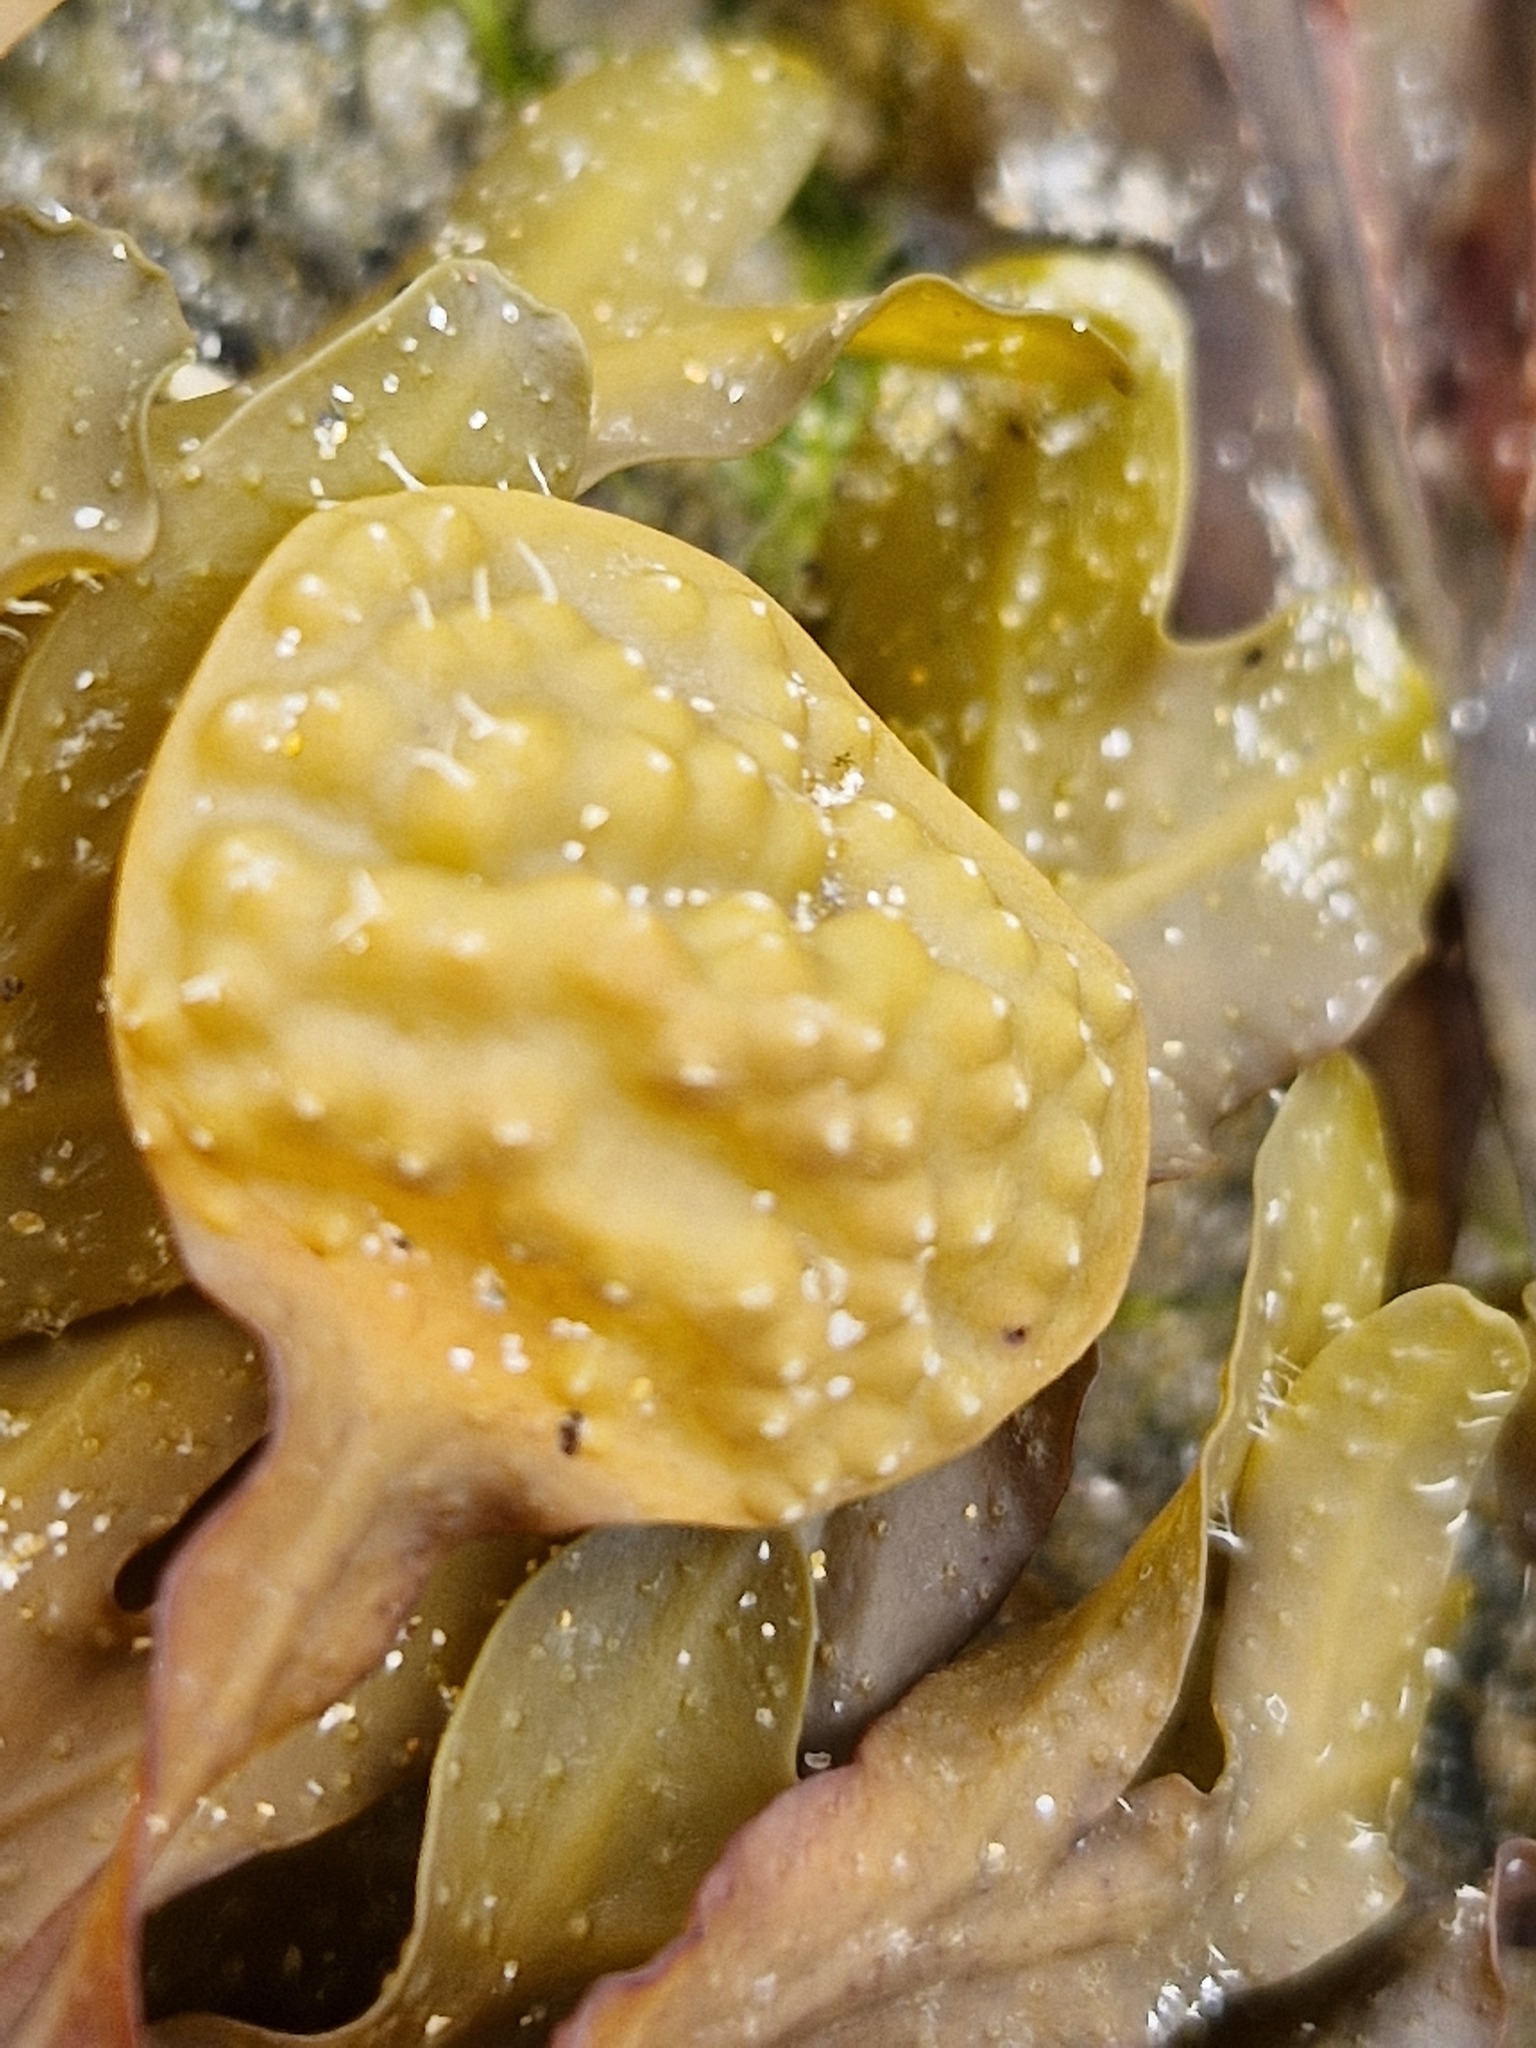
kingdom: Chromista
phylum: Ochrophyta
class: Phaeophyceae
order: Fucales
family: Fucaceae
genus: Fucus
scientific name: Fucus spiralis
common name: Spiral wrack
